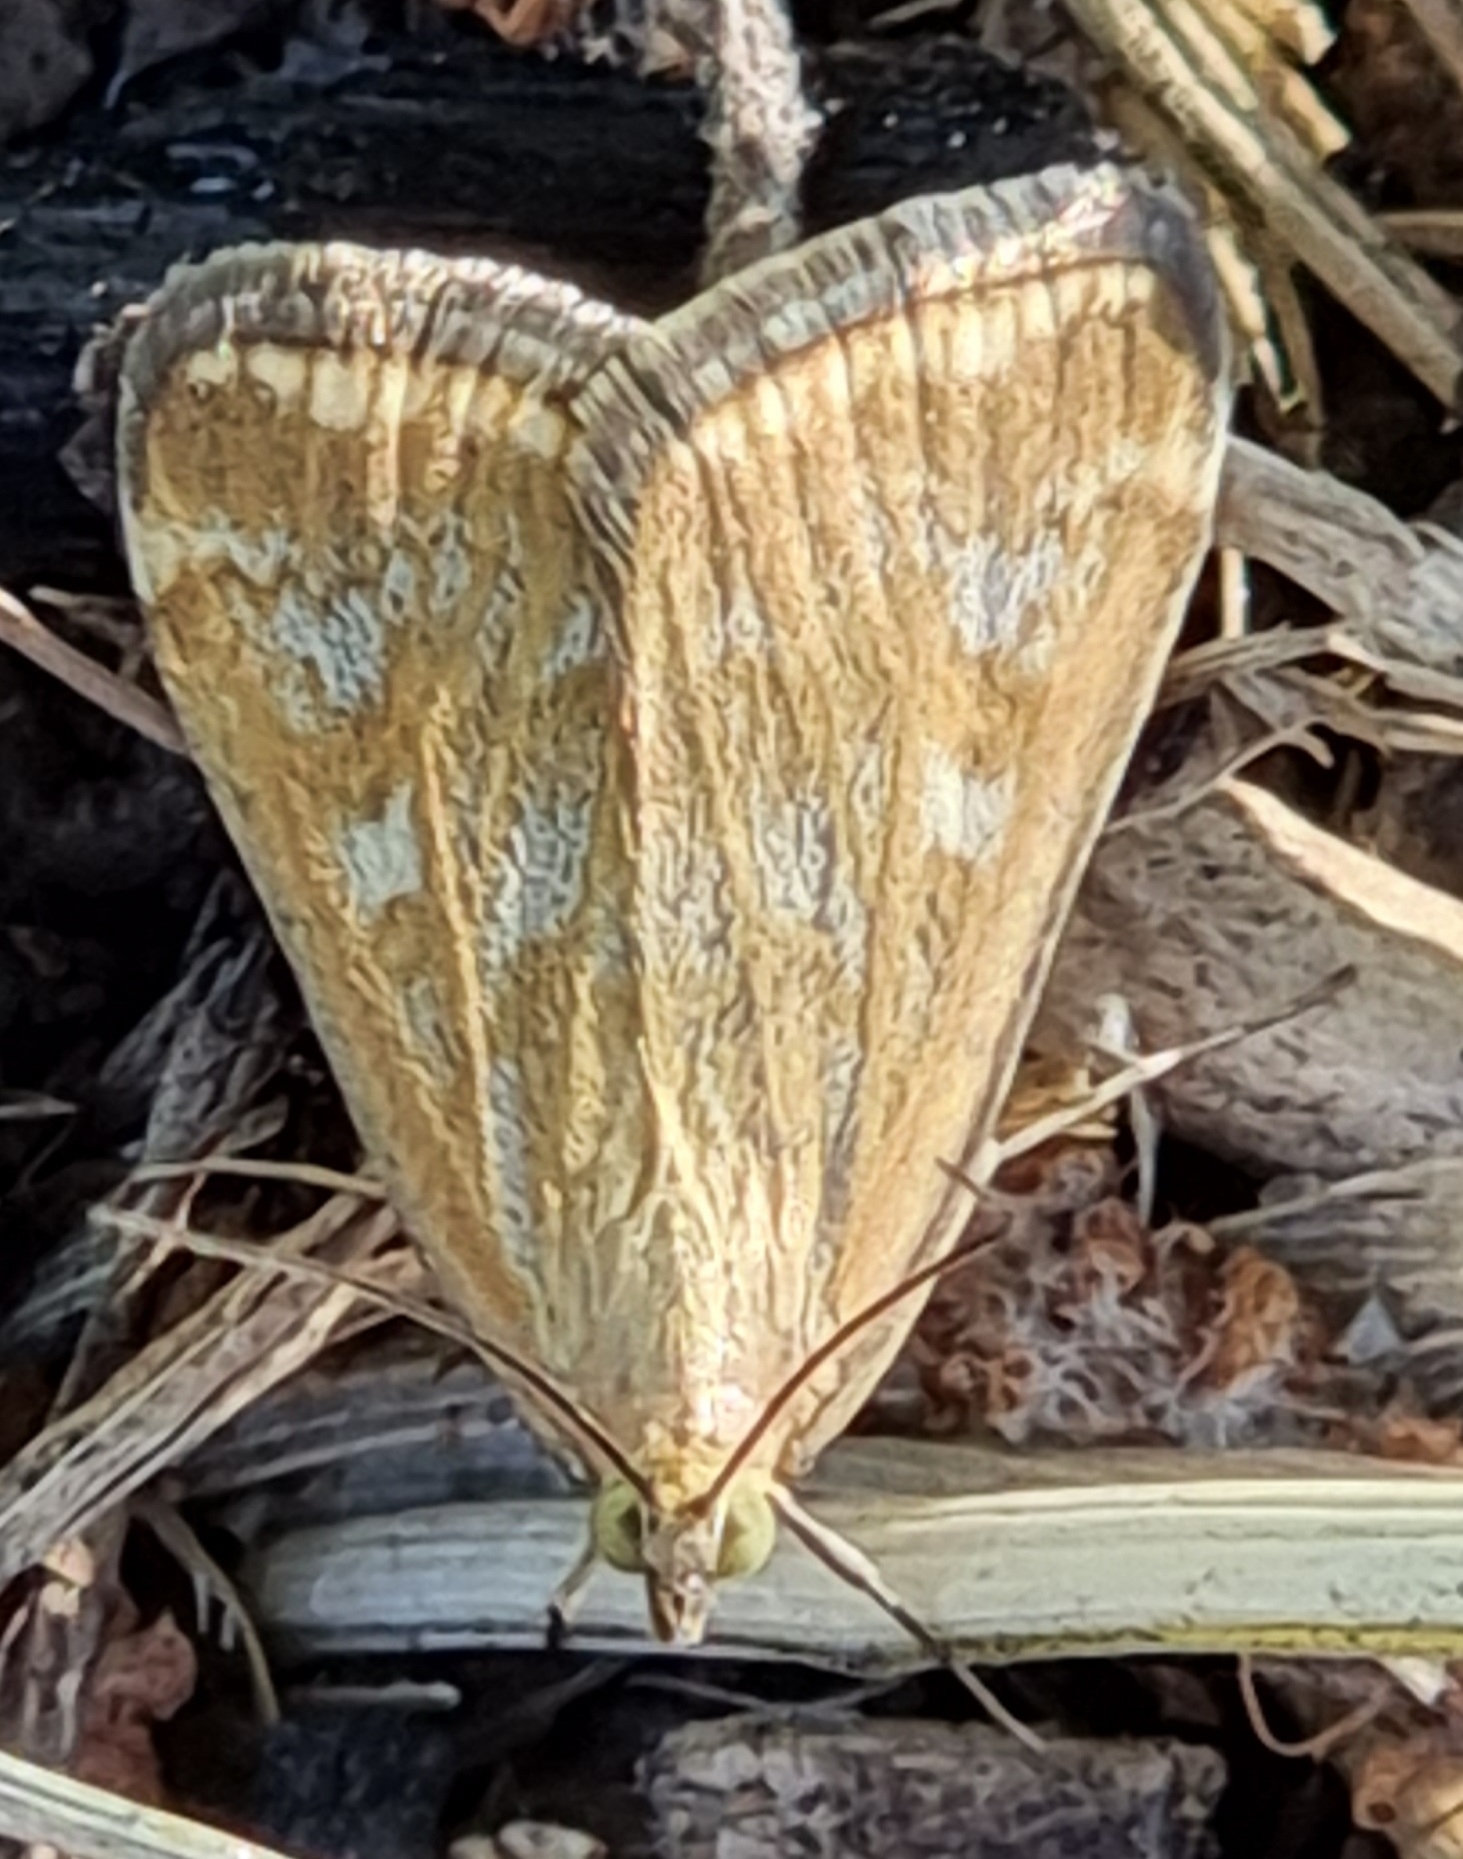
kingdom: Animalia
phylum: Arthropoda
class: Insecta
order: Lepidoptera
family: Crambidae
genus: Loxostege
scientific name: Loxostege sticticalis
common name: Crambid moth
